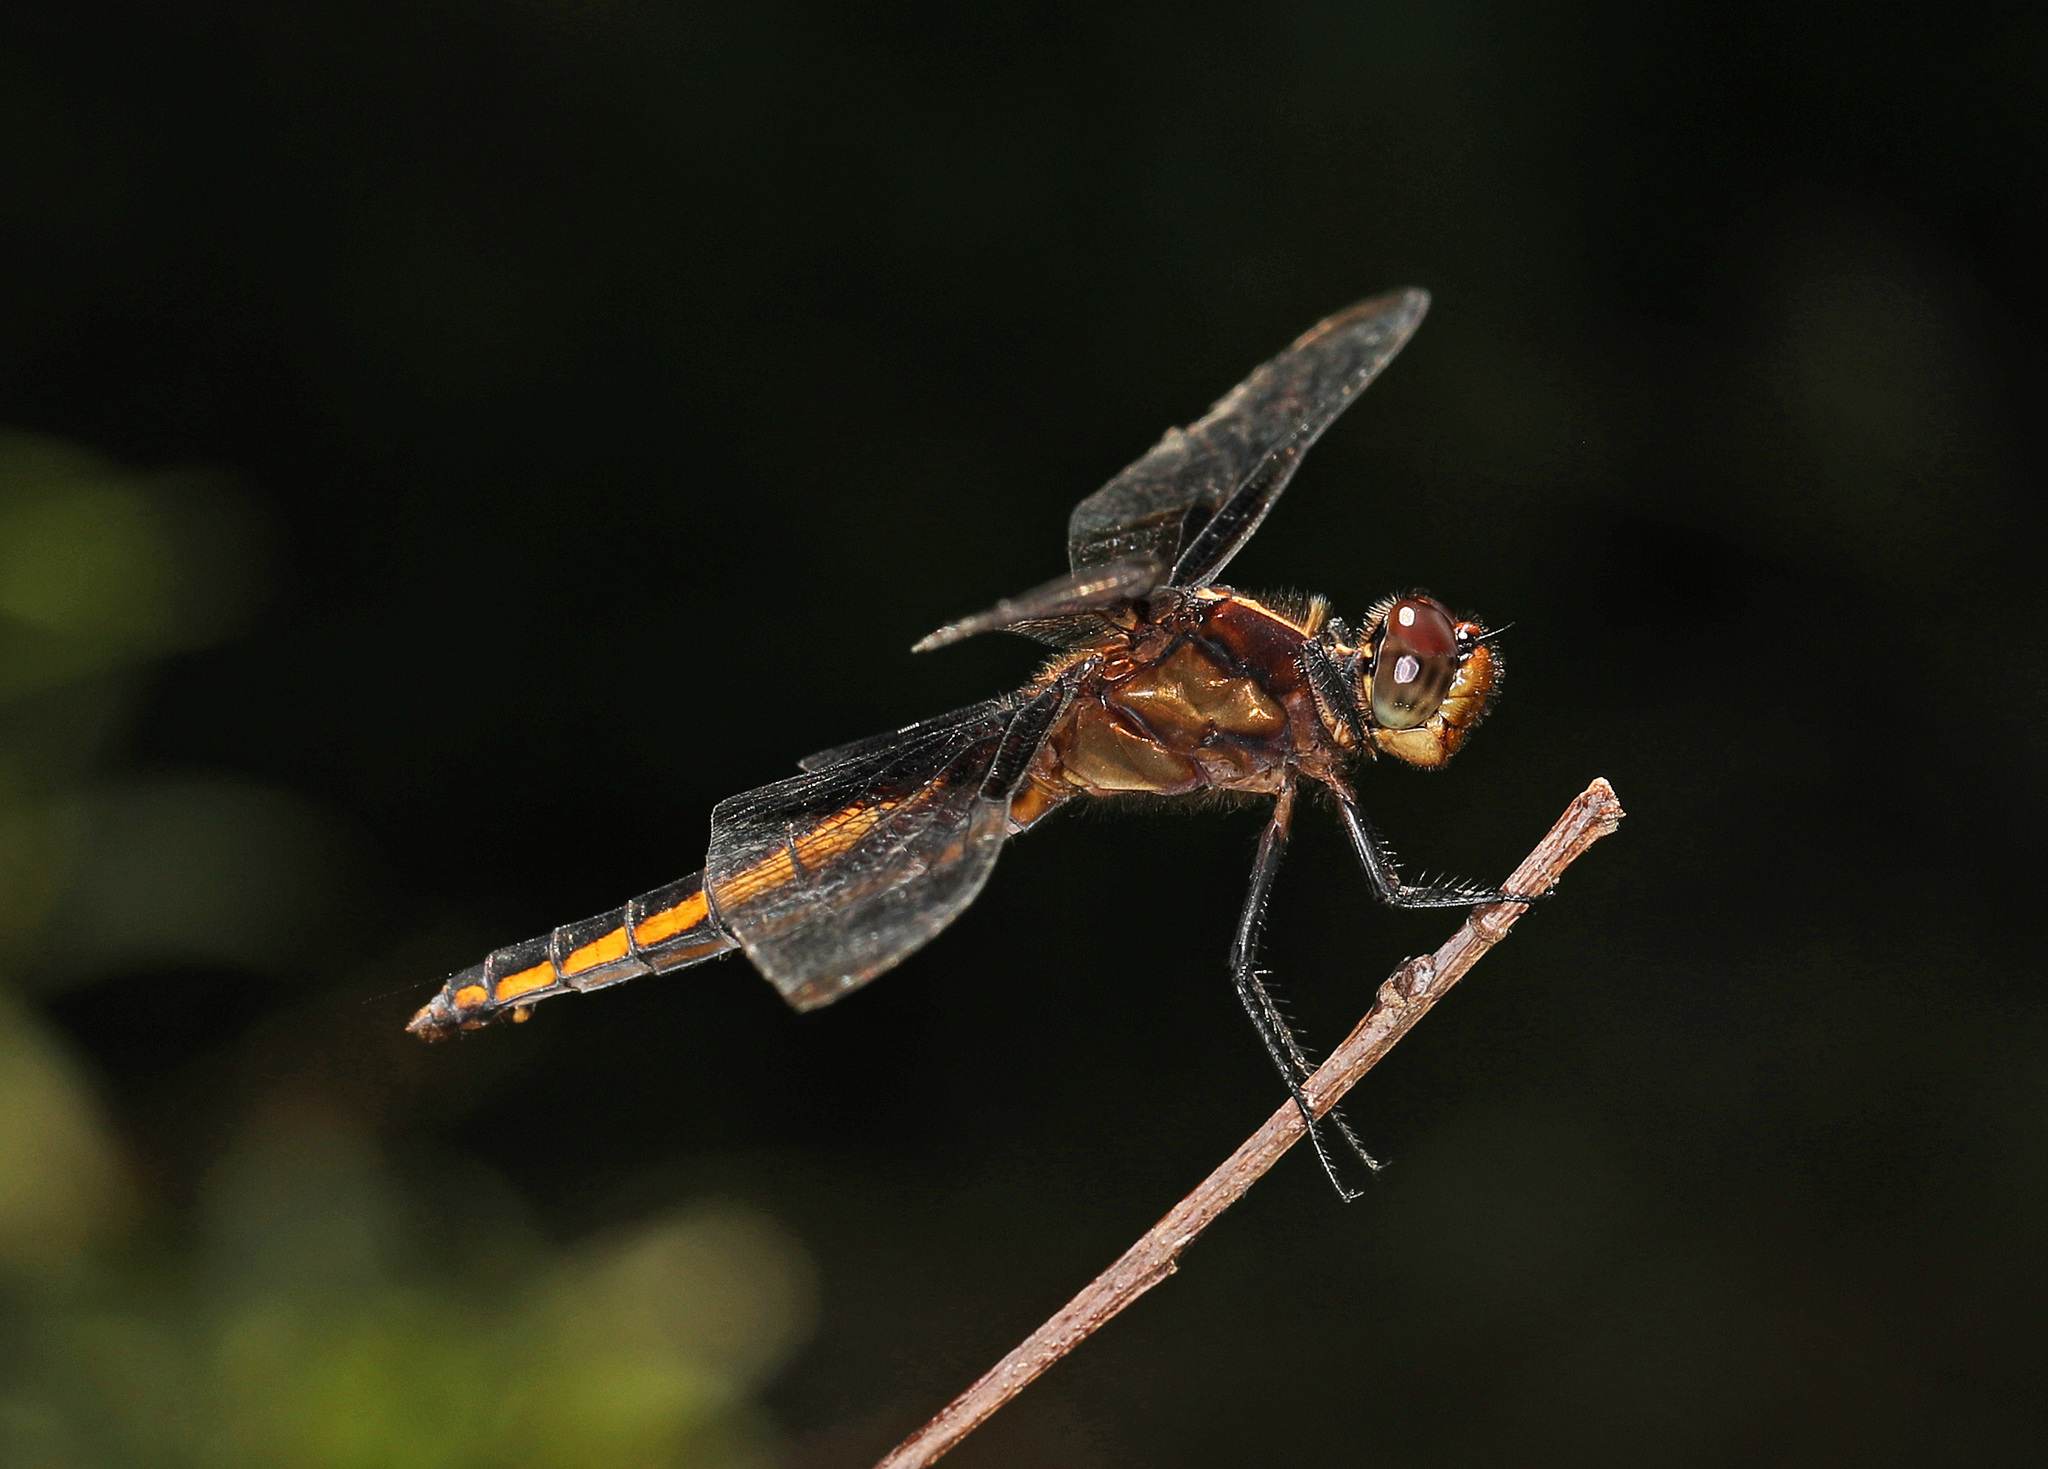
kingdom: Animalia
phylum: Arthropoda
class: Insecta
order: Odonata
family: Libellulidae
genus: Libellula
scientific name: Libellula luctuosa
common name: Widow skimmer
